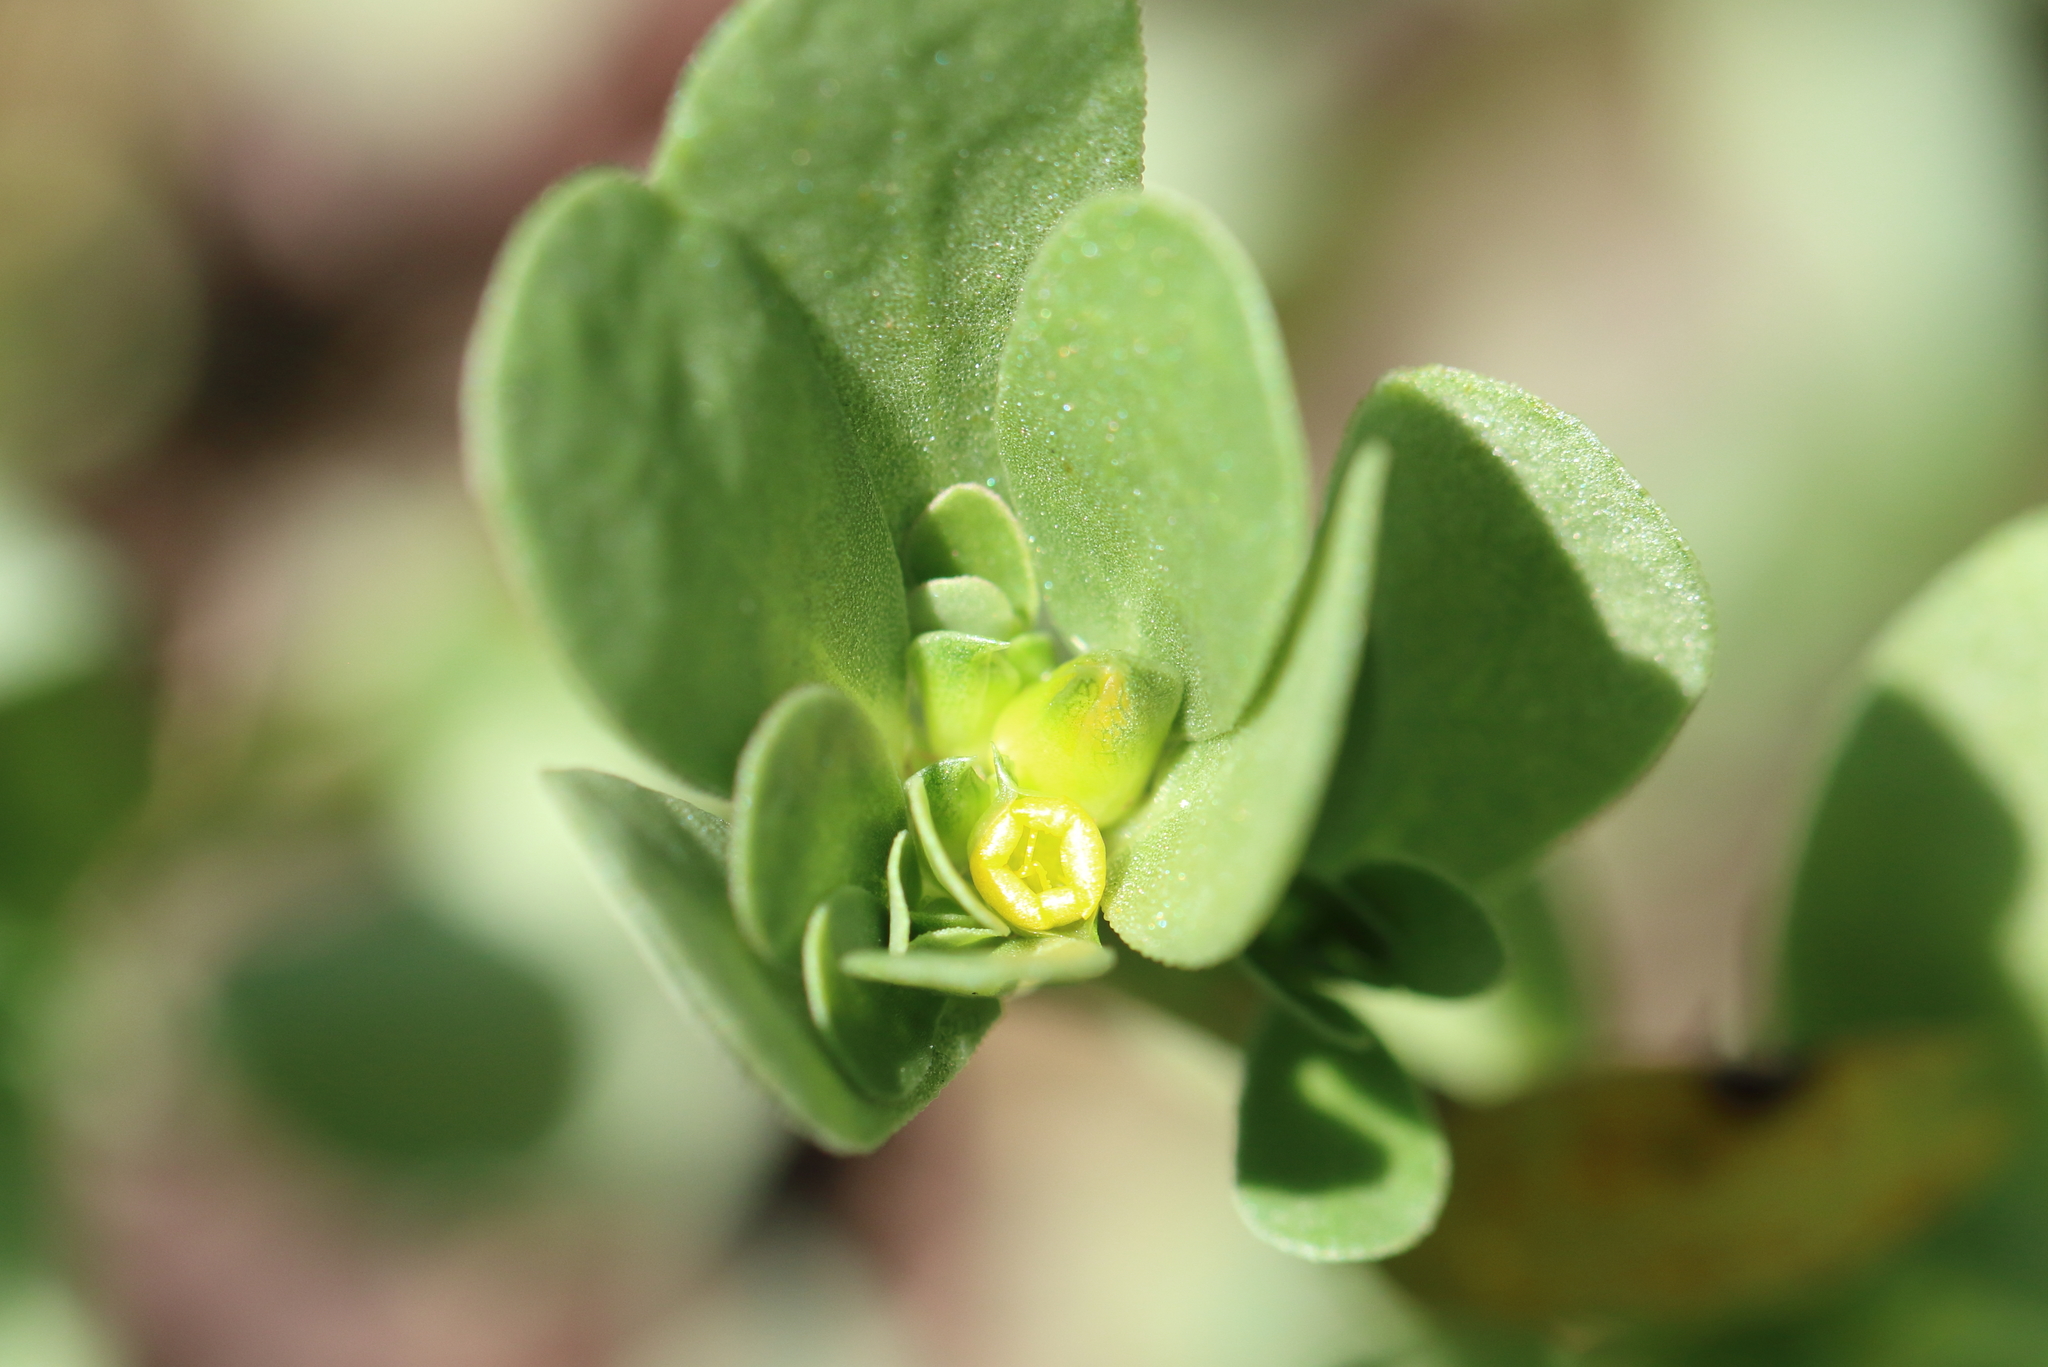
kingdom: Plantae
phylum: Tracheophyta
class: Magnoliopsida
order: Caryophyllales
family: Portulacaceae
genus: Portulaca
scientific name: Portulaca oleracea
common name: Common purslane
